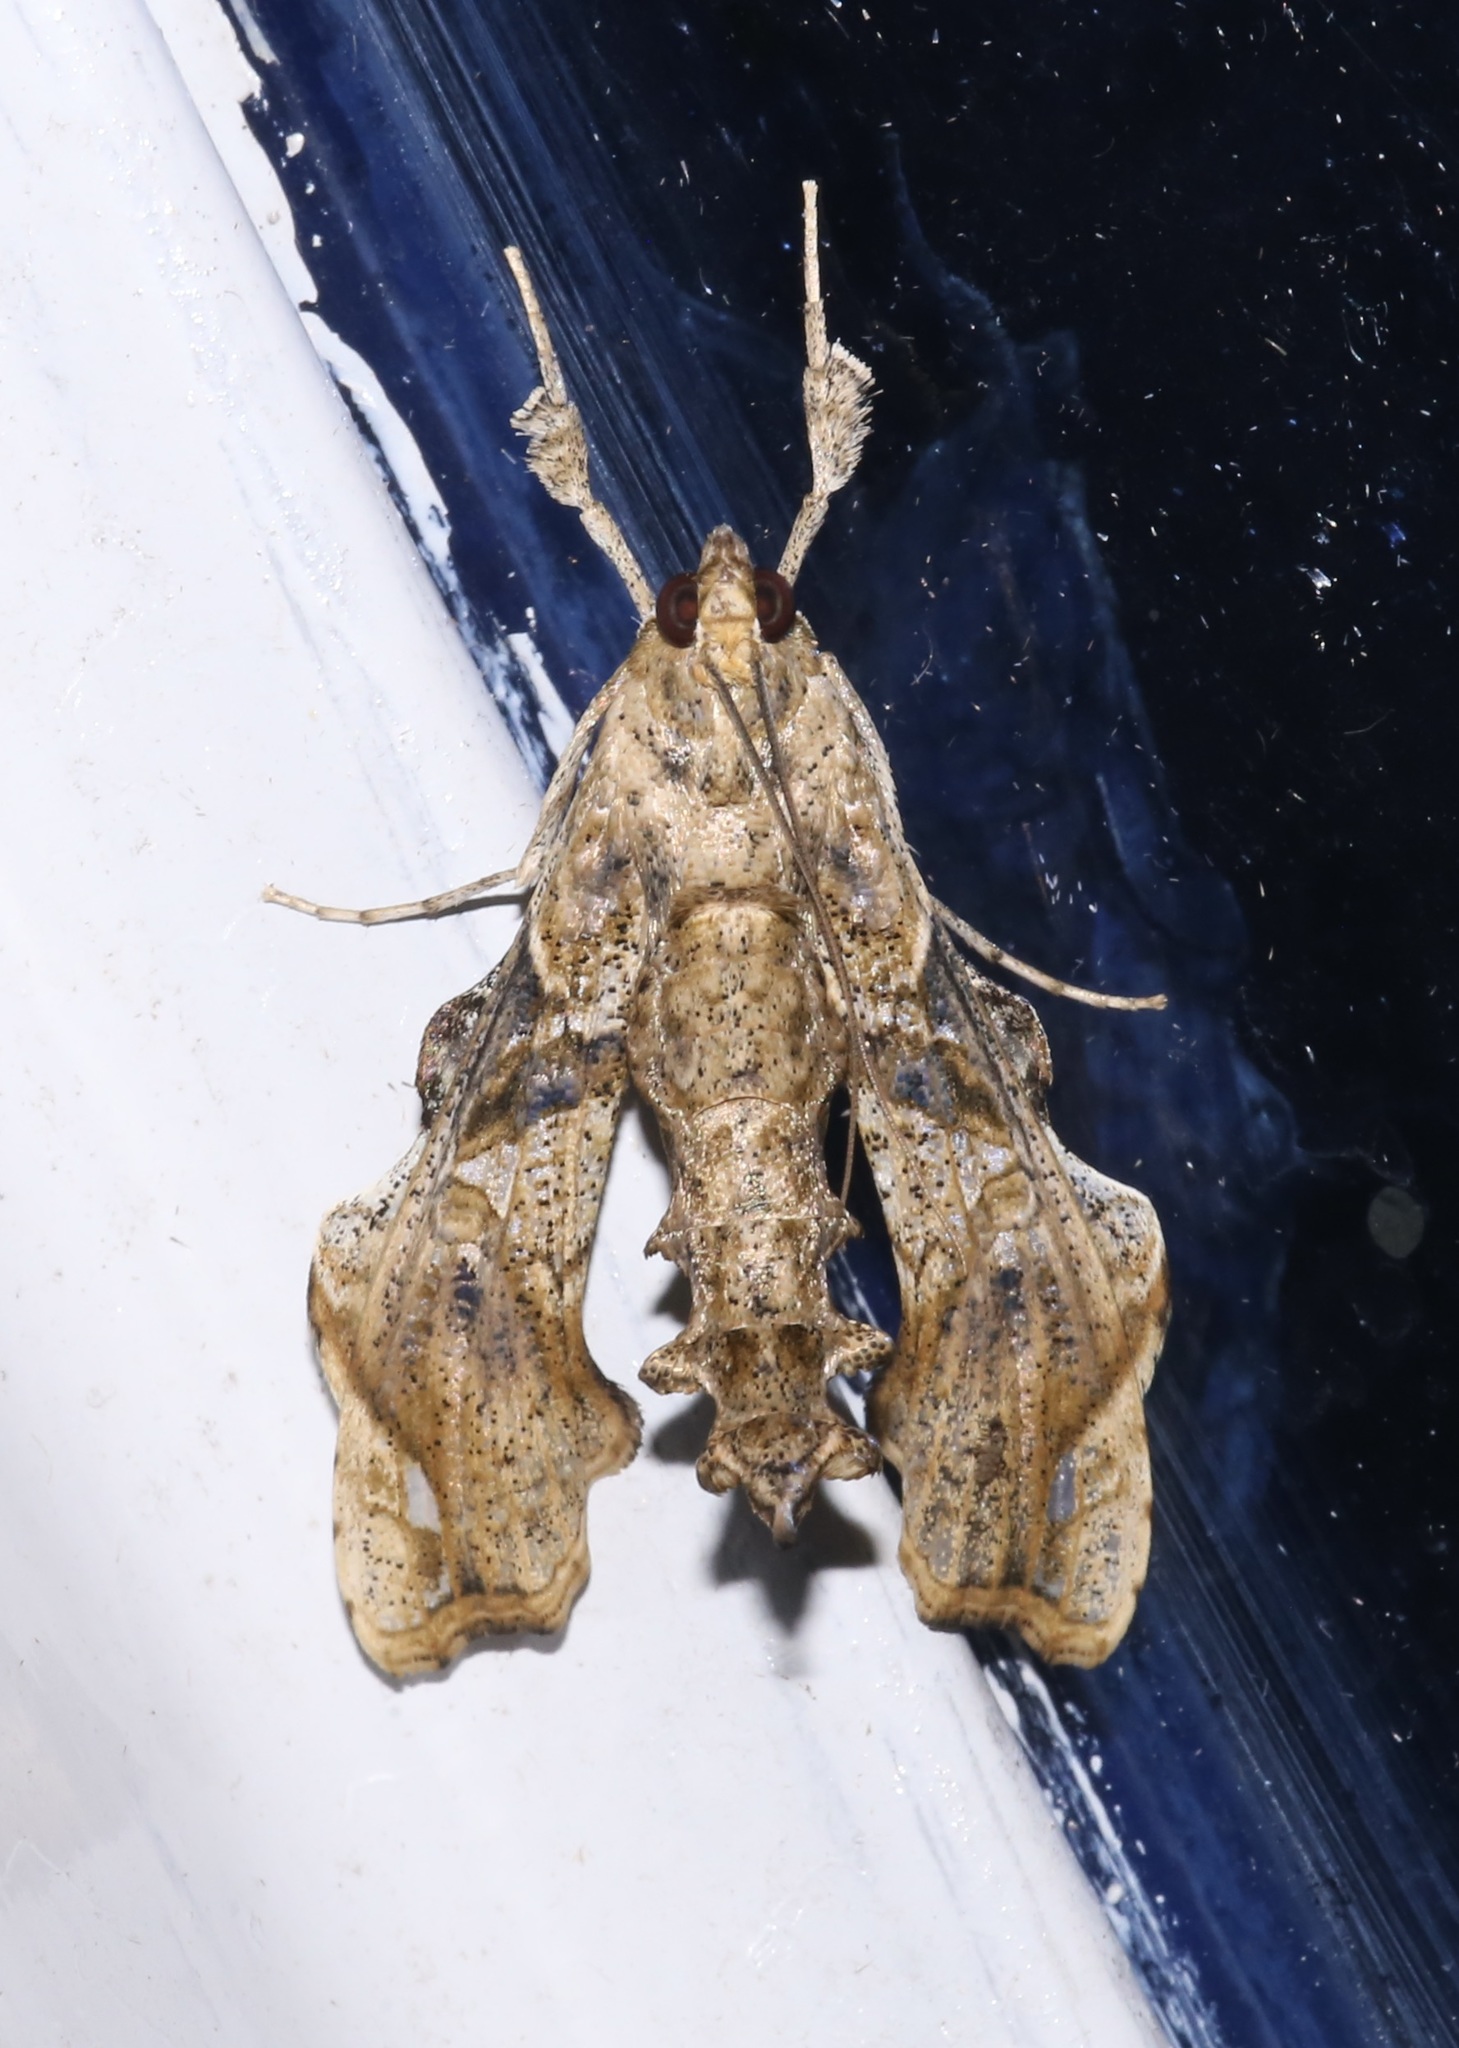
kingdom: Animalia
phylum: Arthropoda
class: Insecta
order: Lepidoptera
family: Crambidae
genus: Terastia
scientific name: Terastia meticulosalis
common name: Moth
